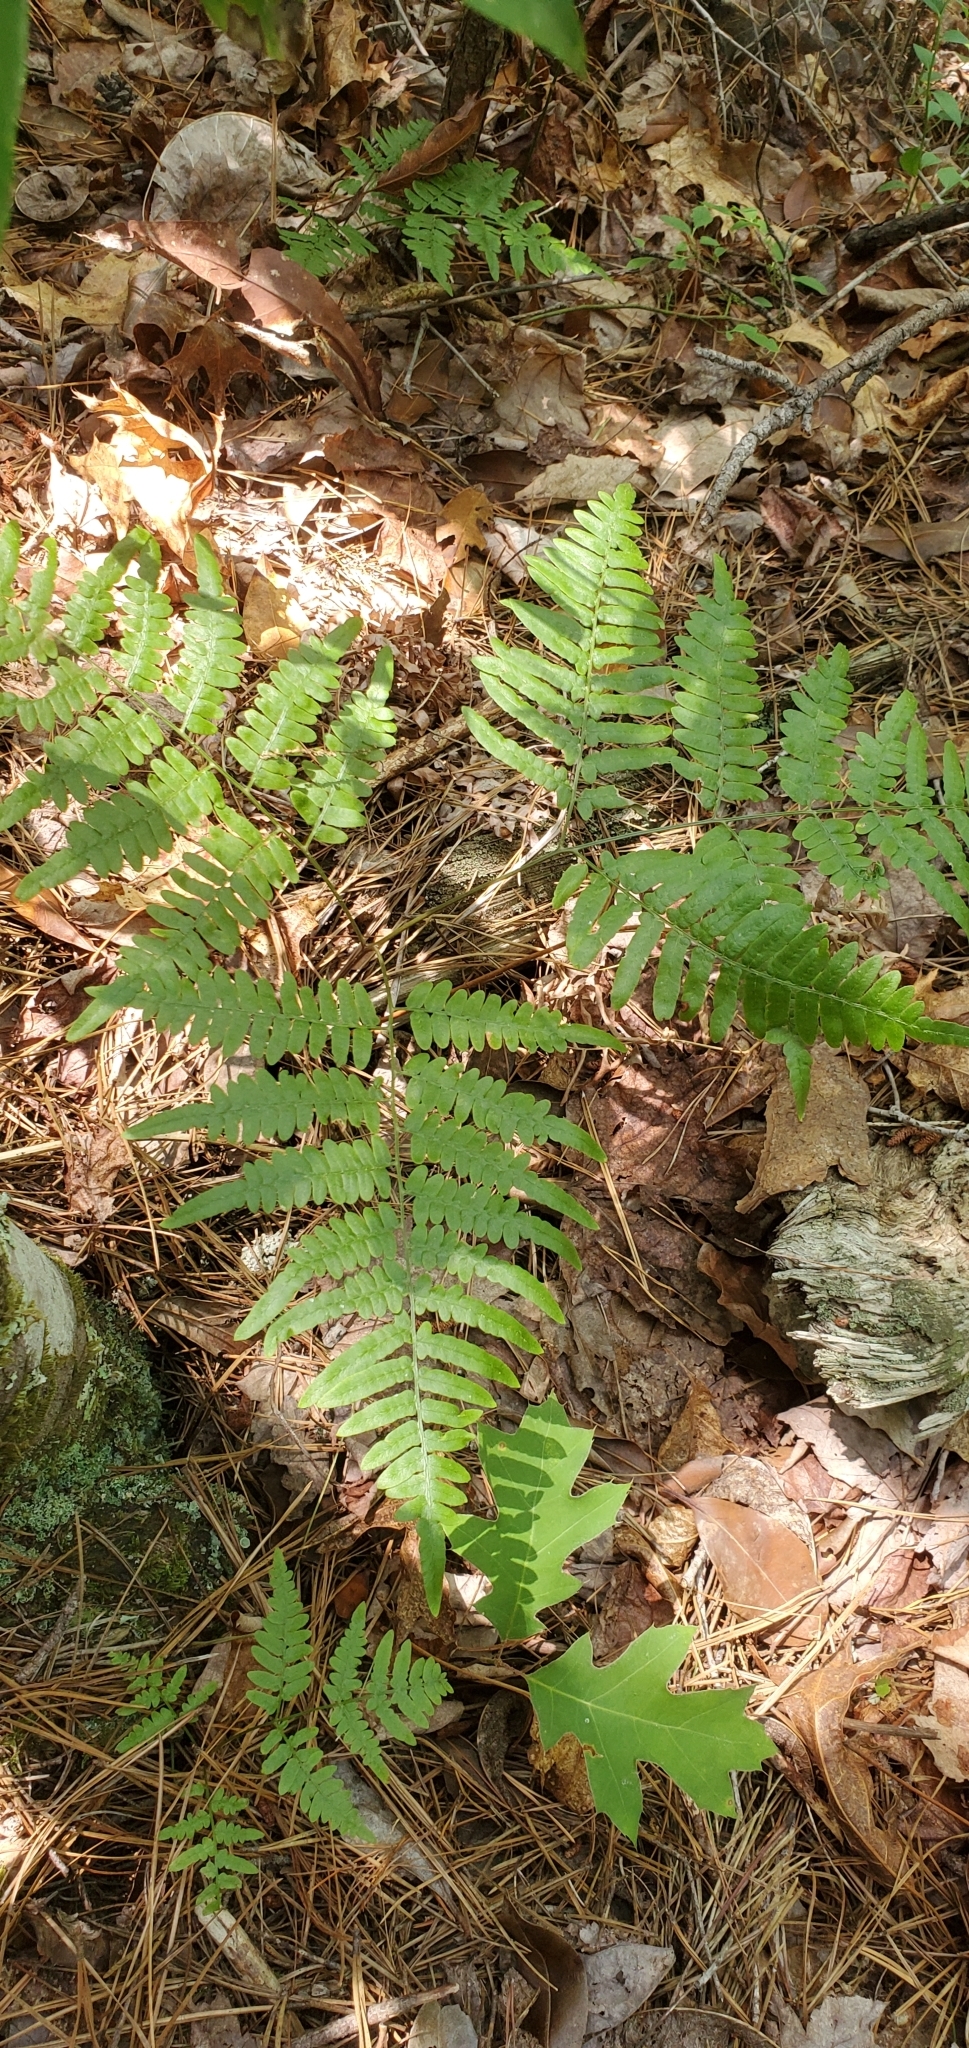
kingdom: Plantae
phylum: Tracheophyta
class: Polypodiopsida
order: Polypodiales
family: Dennstaedtiaceae
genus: Pteridium
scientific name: Pteridium aquilinum
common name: Bracken
